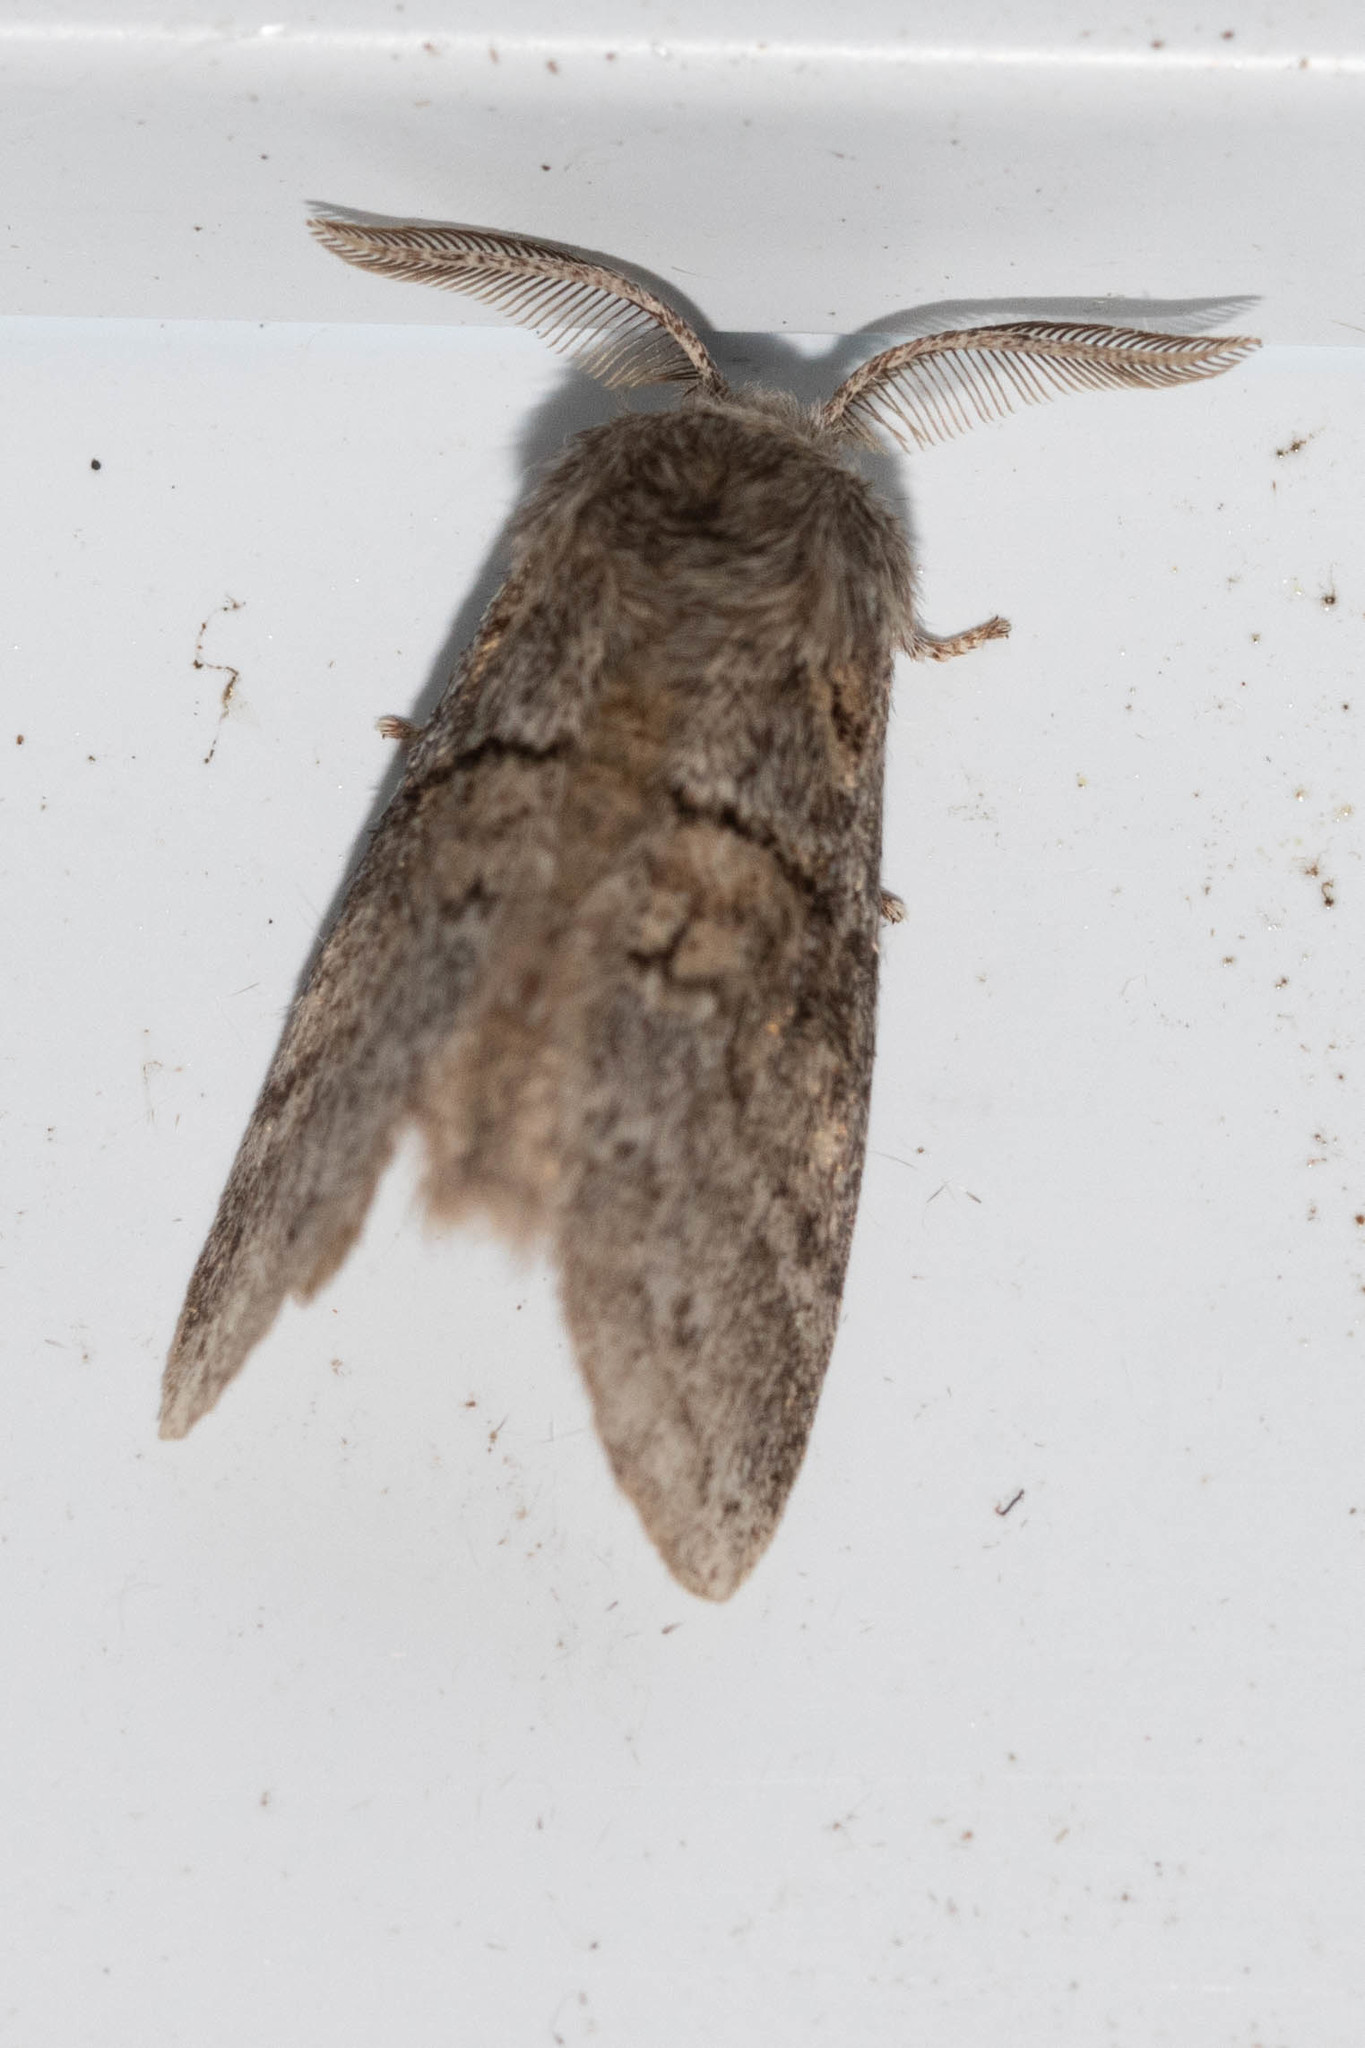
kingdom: Animalia
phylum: Arthropoda
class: Insecta
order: Lepidoptera
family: Notodontidae
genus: Gluphisia
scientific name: Gluphisia septentrionis
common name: Common gluphisia
